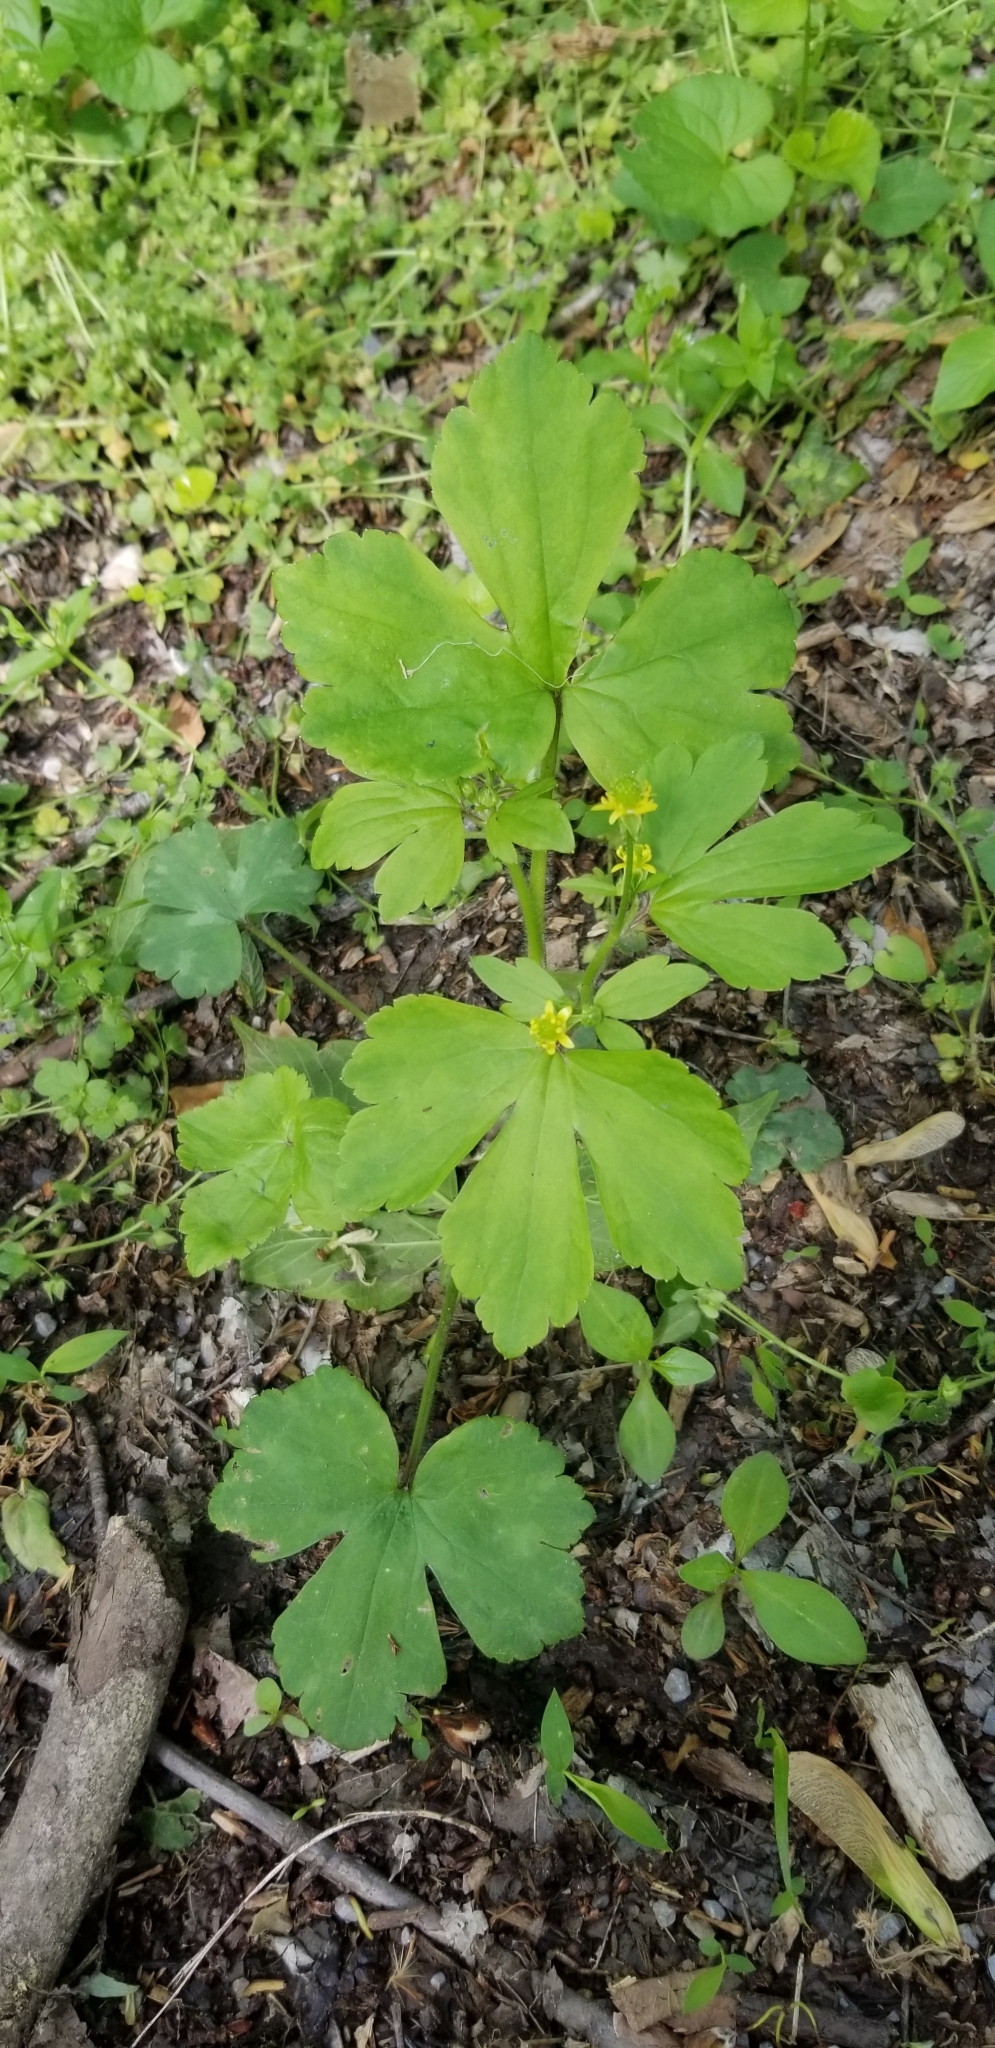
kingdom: Plantae
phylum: Tracheophyta
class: Magnoliopsida
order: Ranunculales
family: Ranunculaceae
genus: Ranunculus
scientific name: Ranunculus recurvatus
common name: Blisterwort
